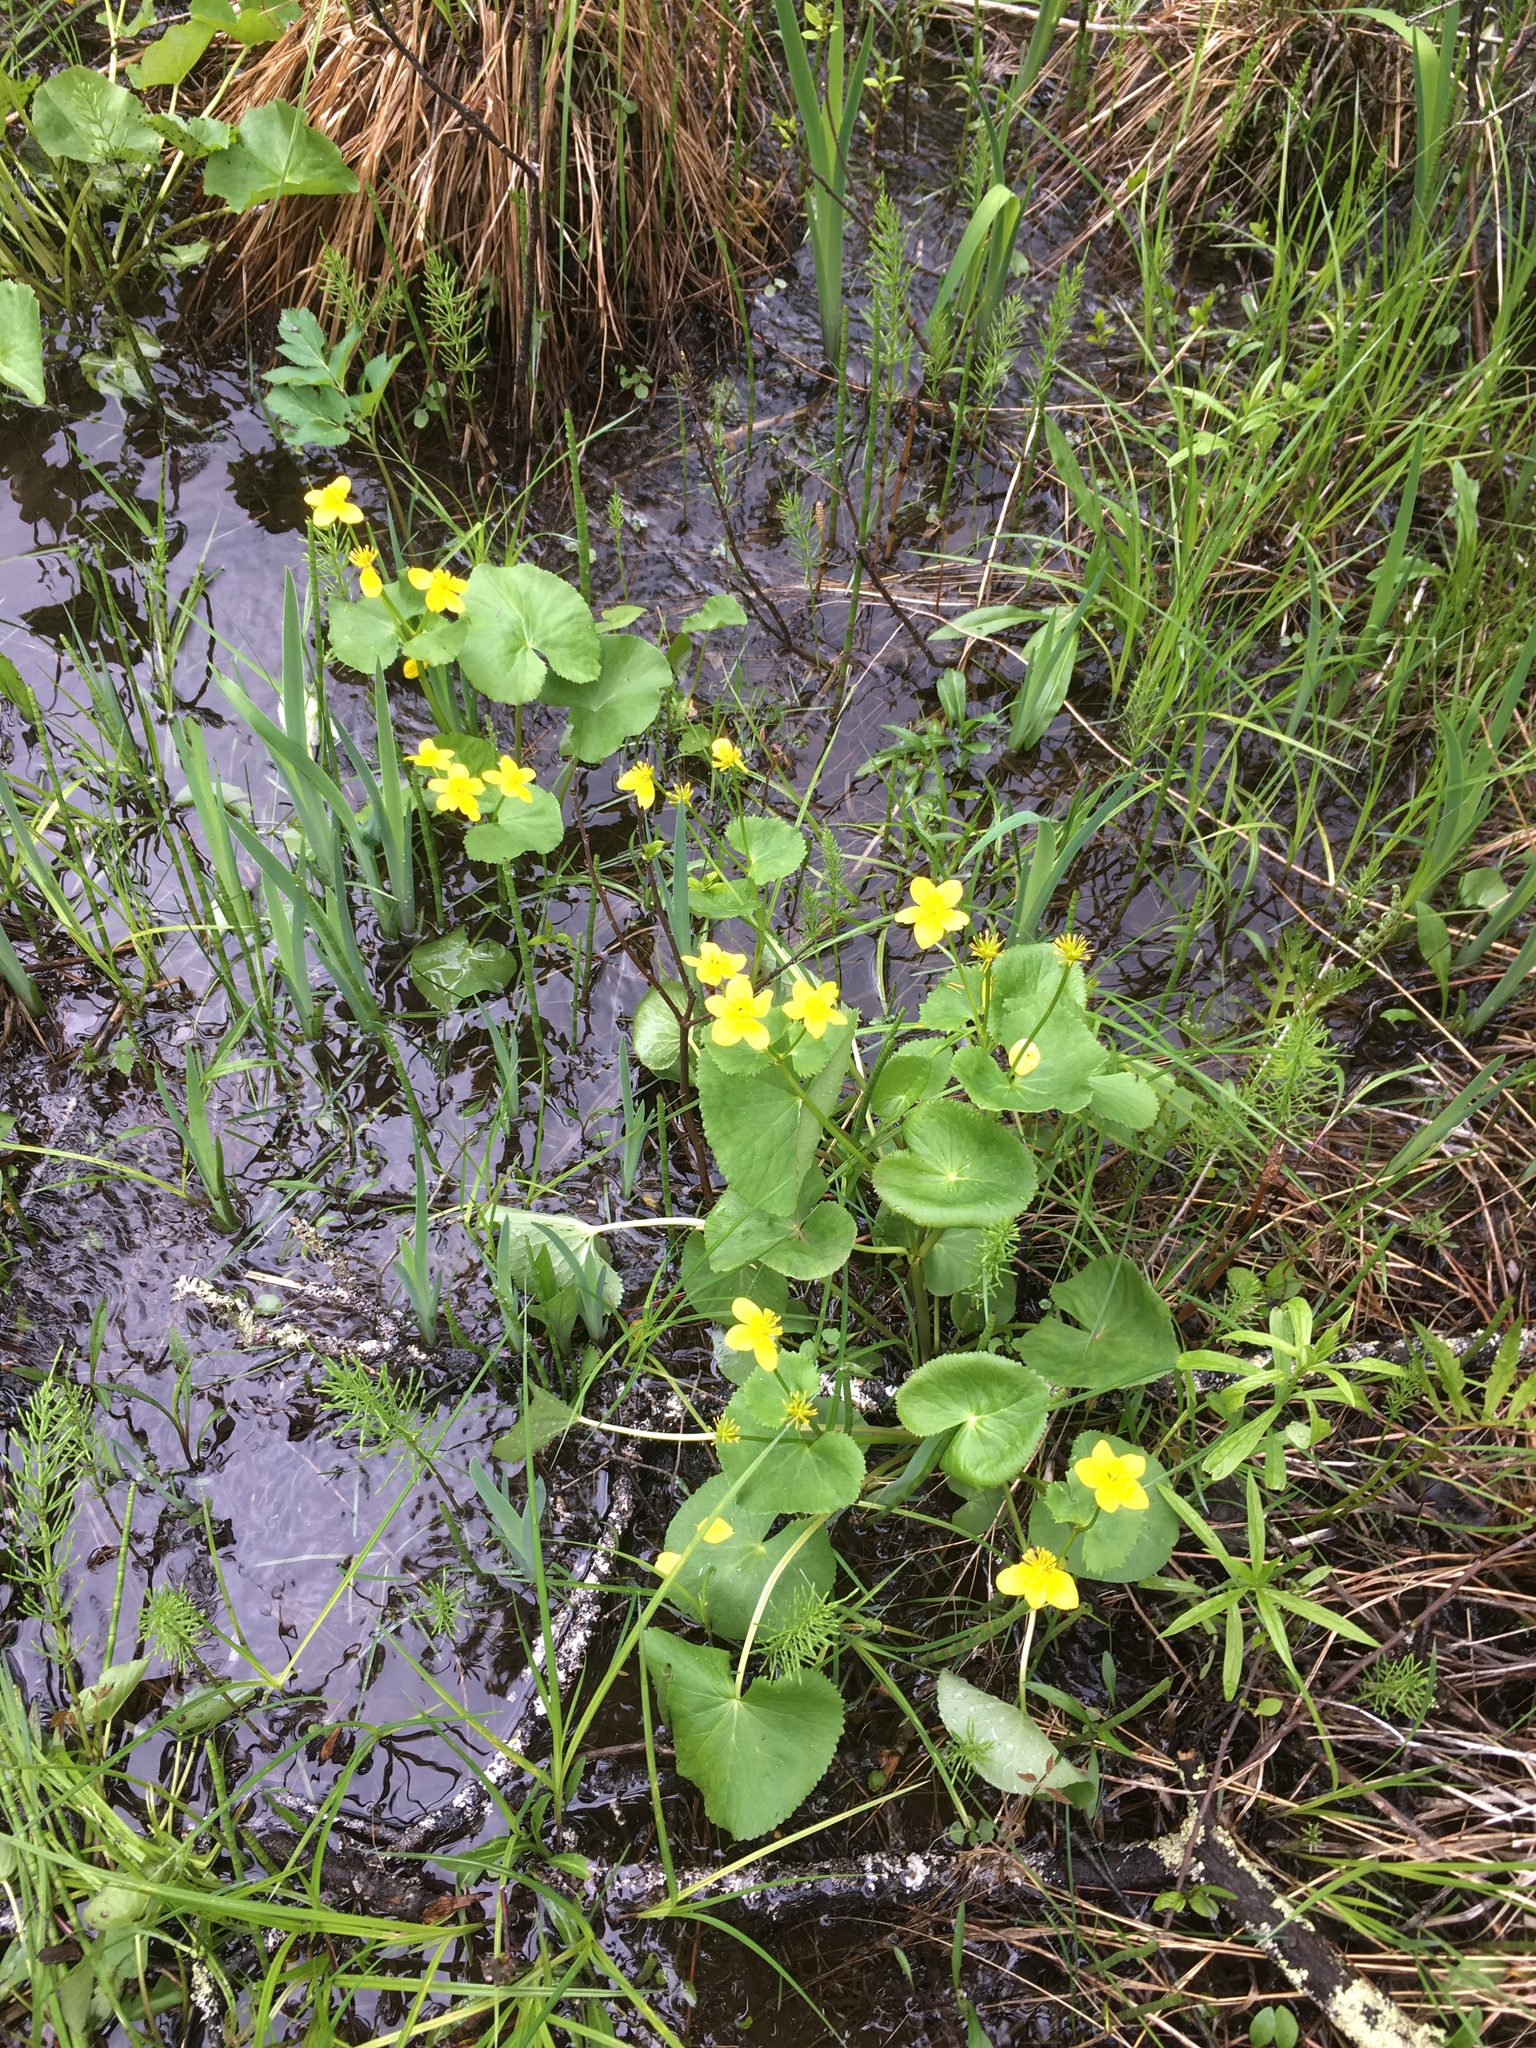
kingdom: Plantae
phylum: Tracheophyta
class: Magnoliopsida
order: Ranunculales
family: Ranunculaceae
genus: Caltha
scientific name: Caltha palustris
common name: Marsh marigold
